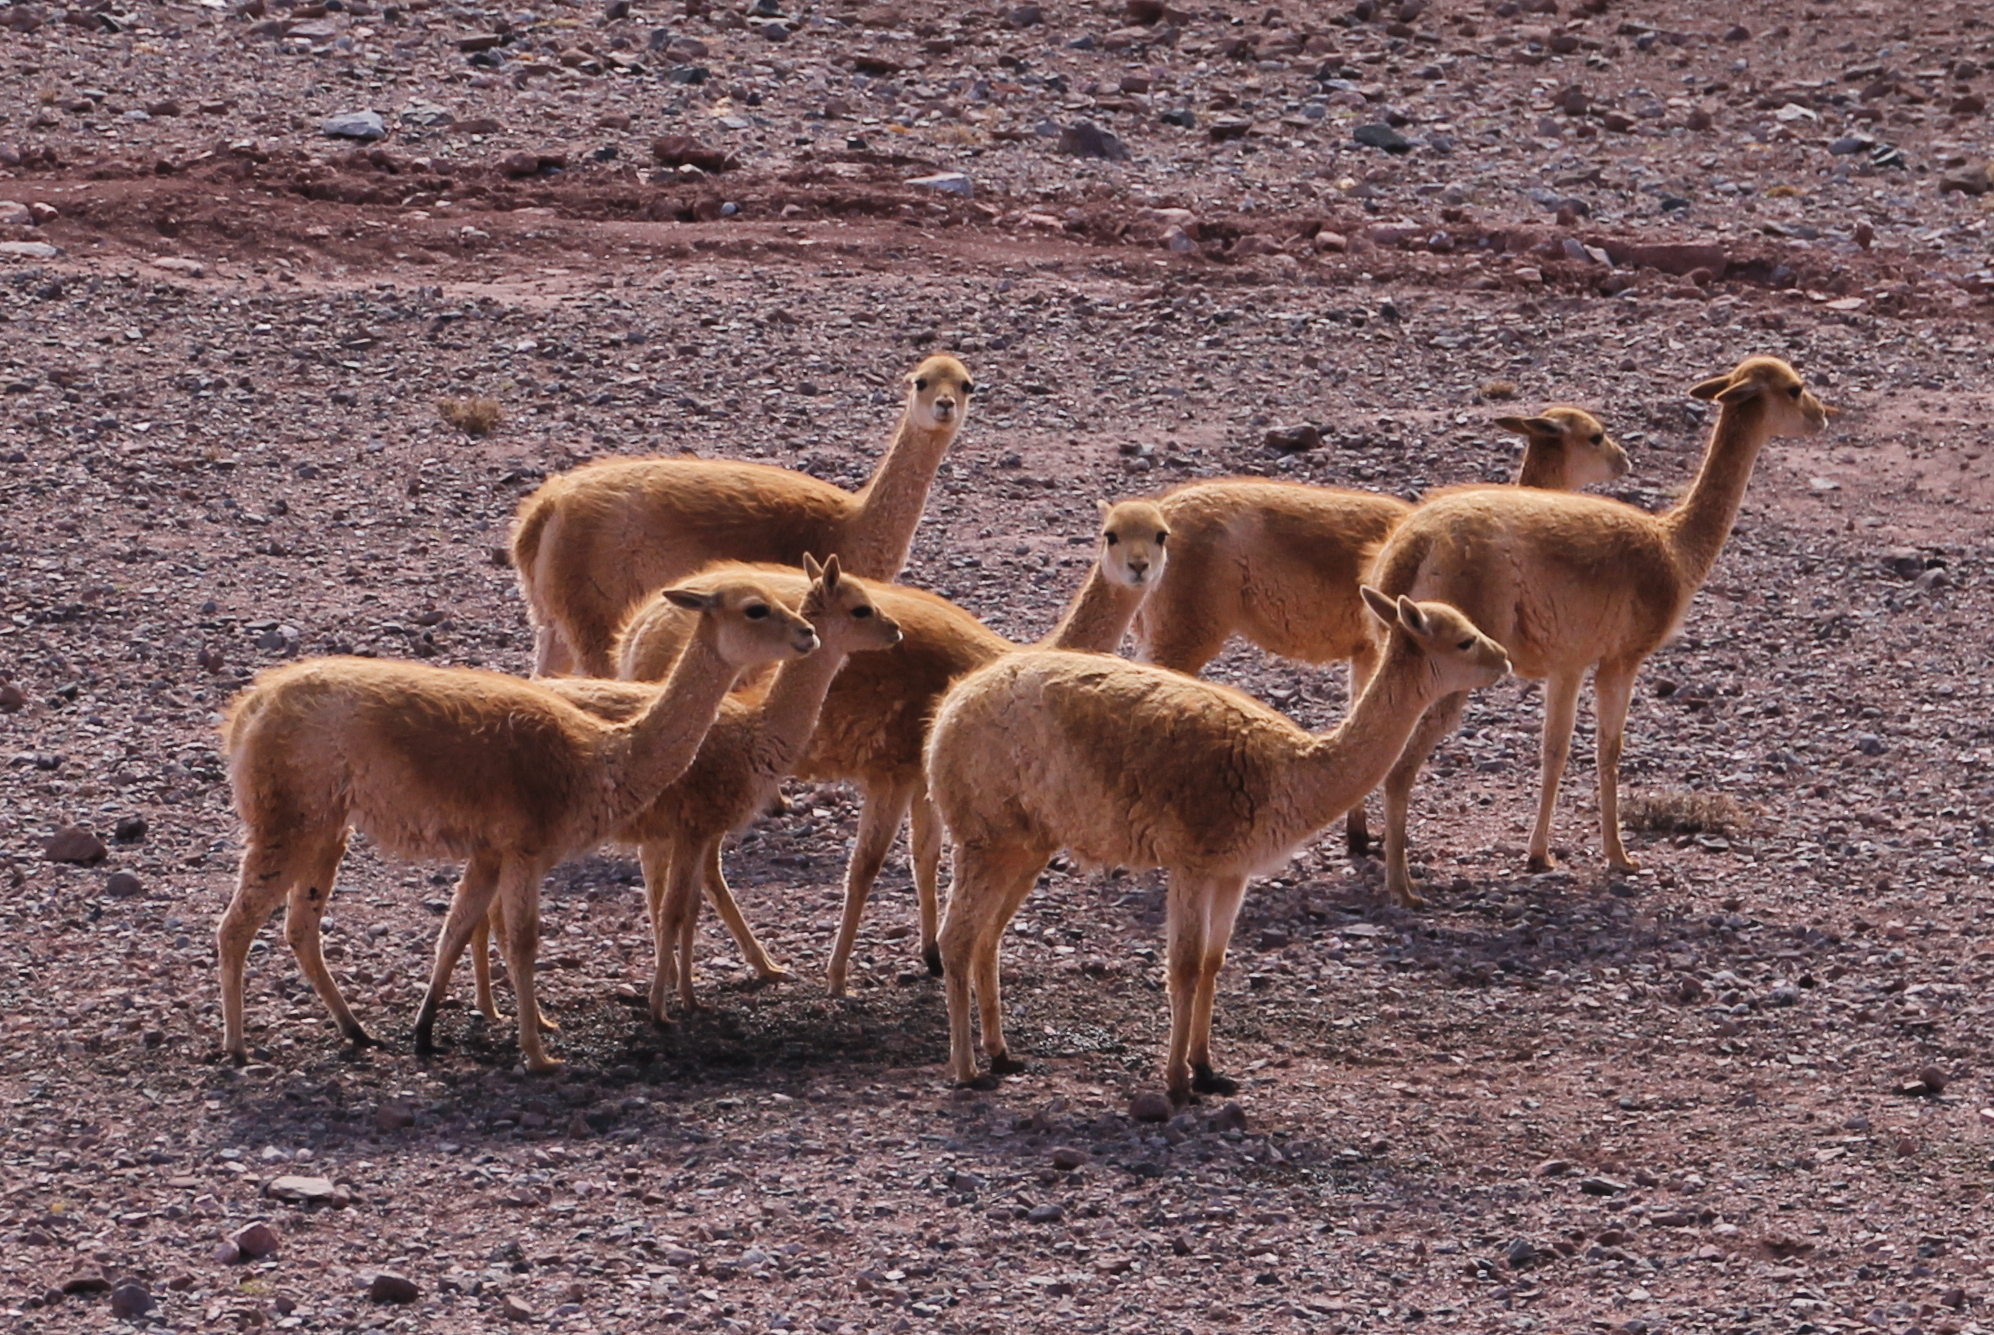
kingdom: Animalia
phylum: Chordata
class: Mammalia
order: Artiodactyla
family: Camelidae
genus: Vicugna
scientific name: Vicugna vicugna
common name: Vicugna
